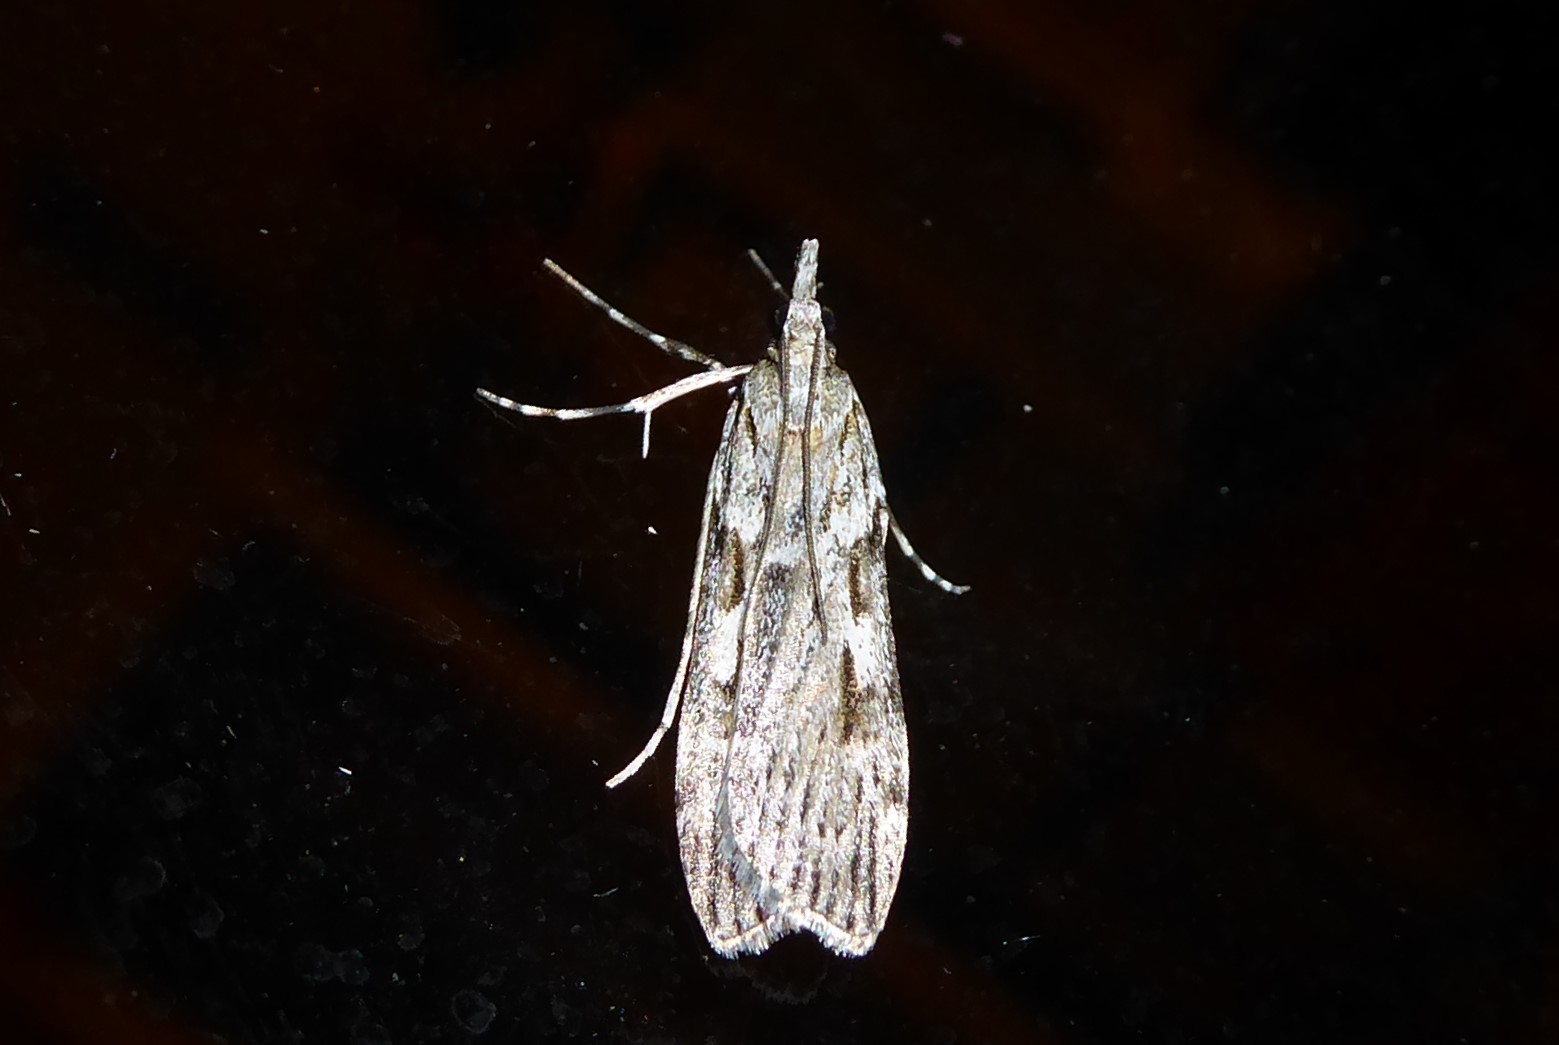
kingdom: Animalia
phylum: Arthropoda
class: Insecta
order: Lepidoptera
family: Crambidae
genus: Scoparia
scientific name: Scoparia halopis
